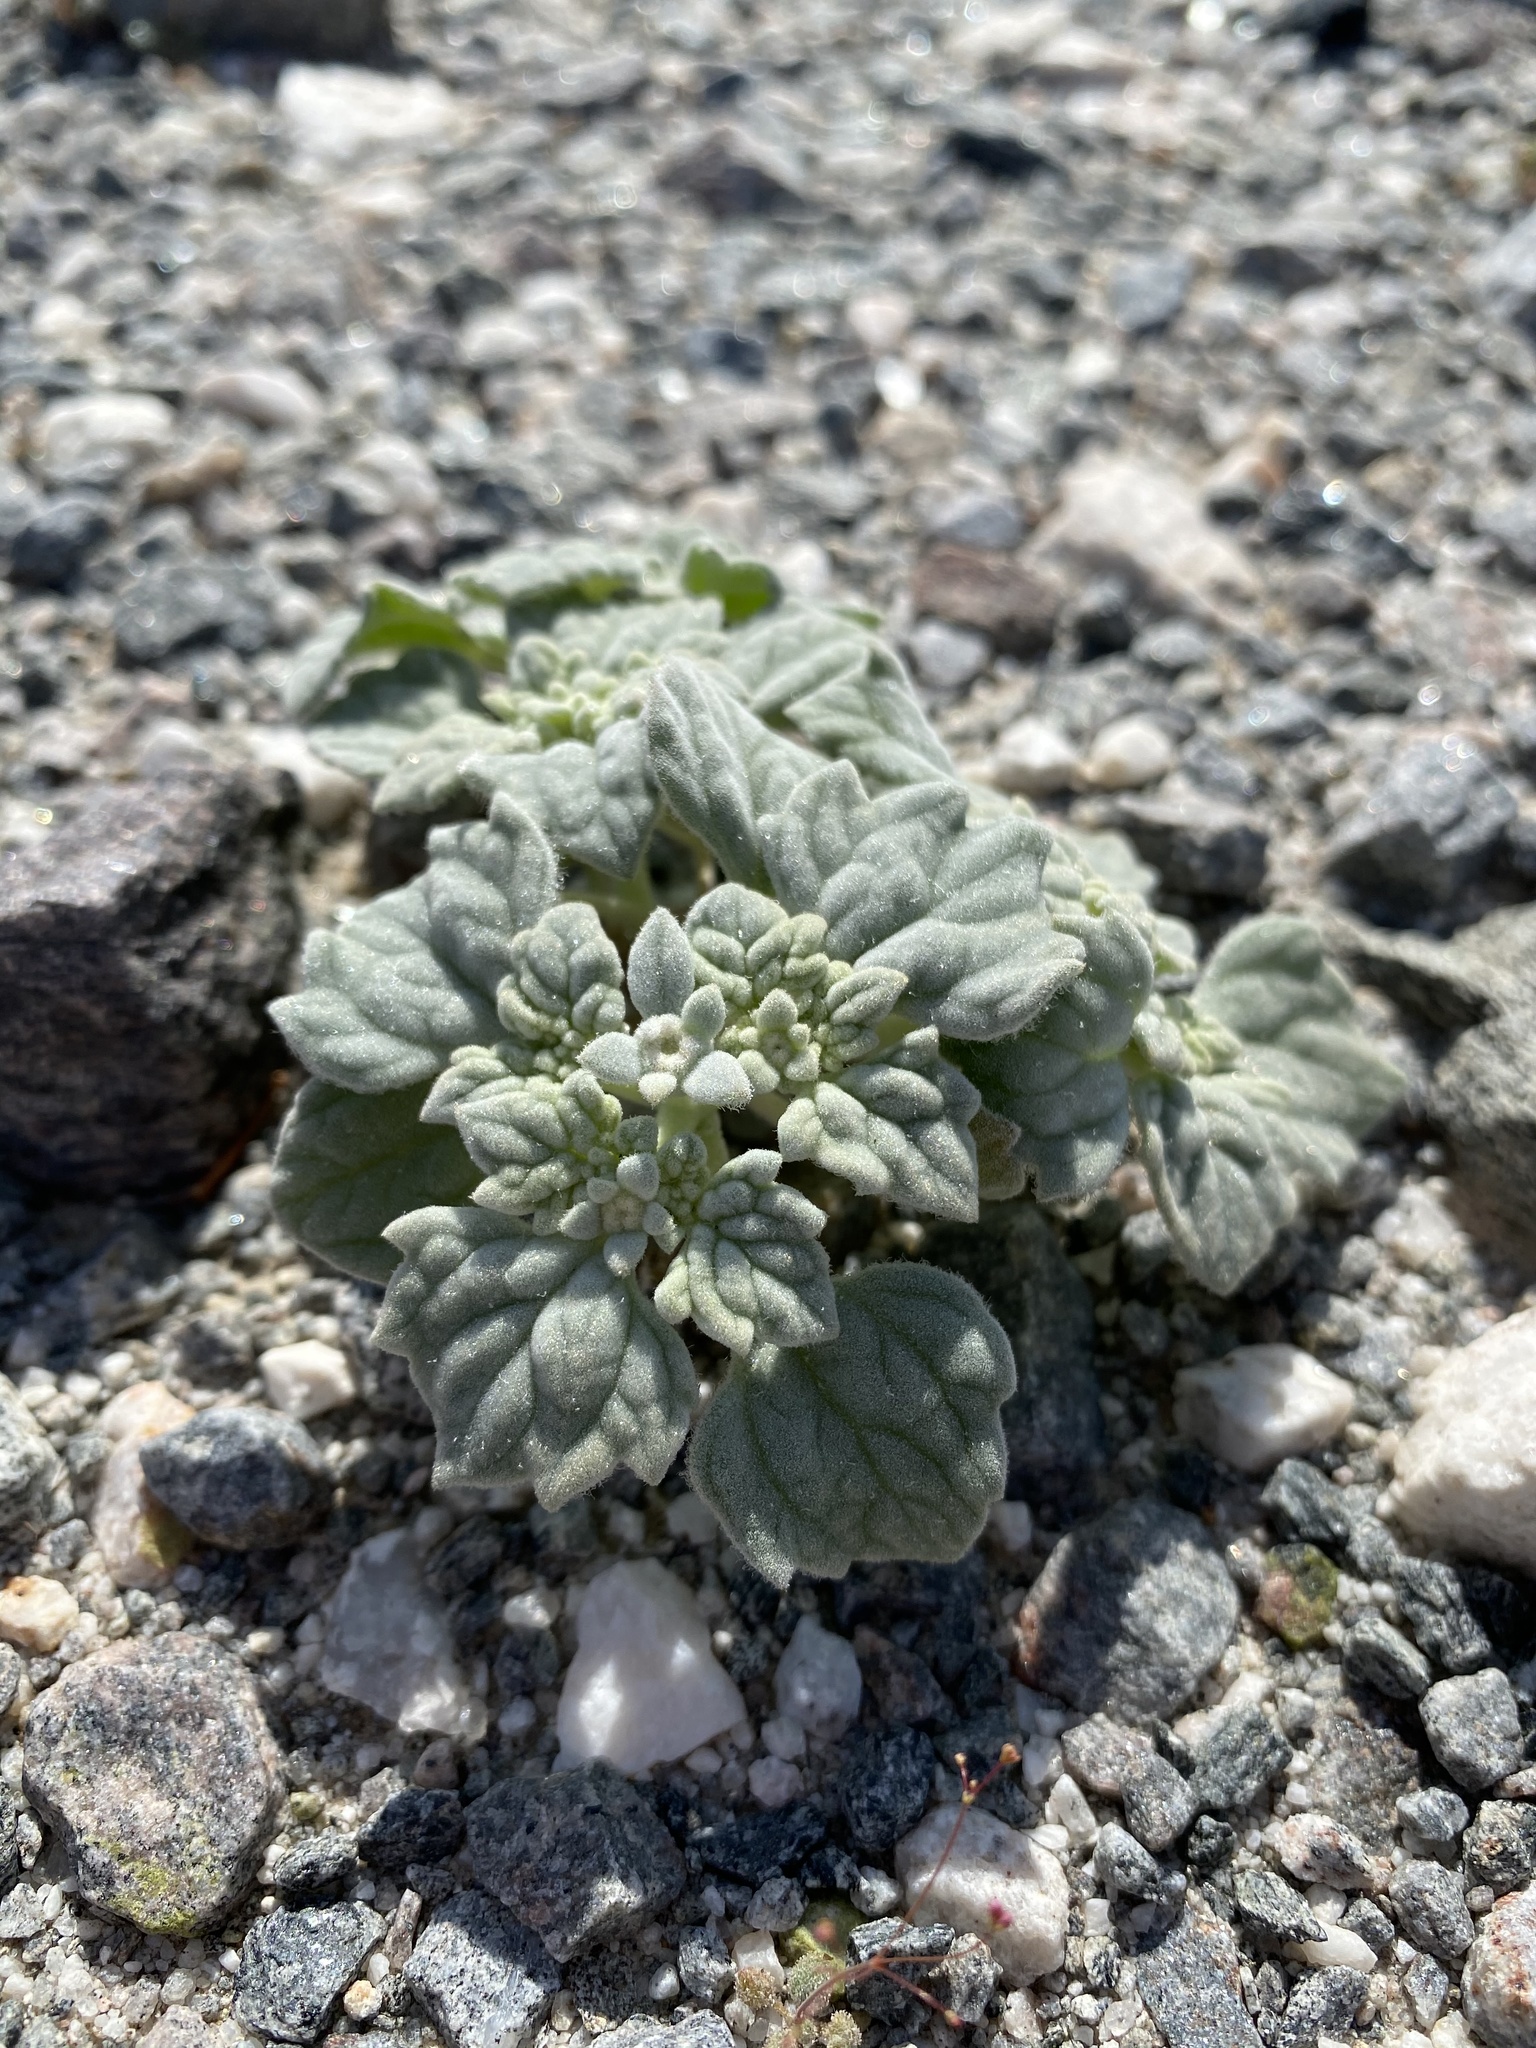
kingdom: Plantae
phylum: Tracheophyta
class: Magnoliopsida
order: Asterales
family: Asteraceae
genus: Psathyrotes
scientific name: Psathyrotes ramosissima
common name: Turtleback
